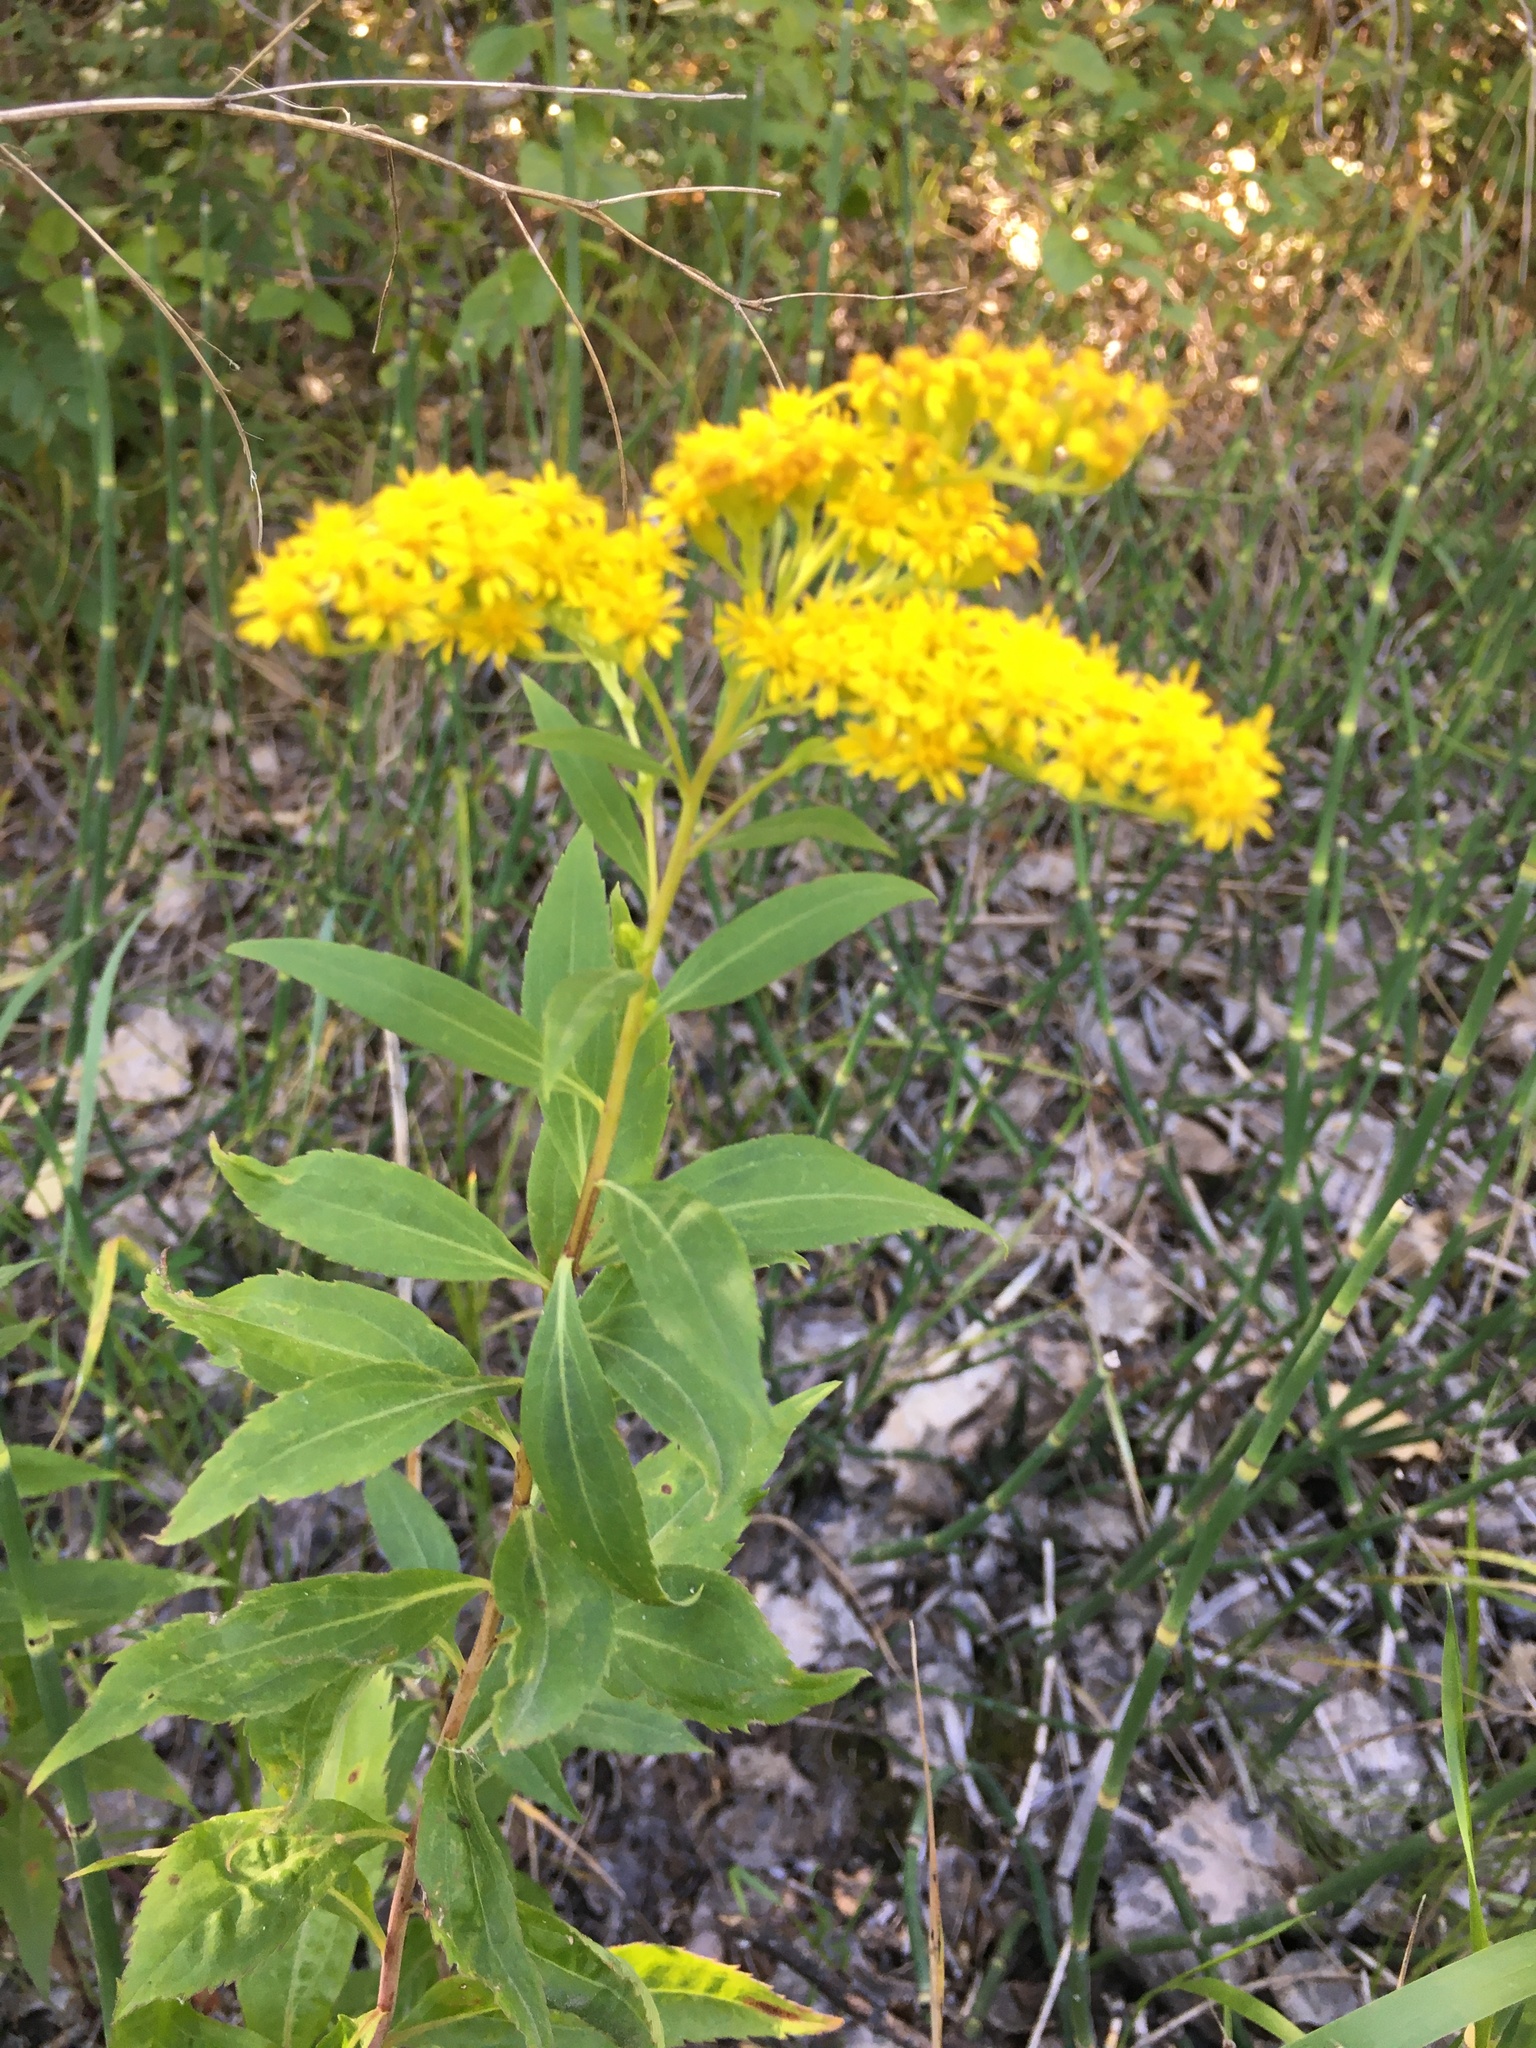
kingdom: Plantae
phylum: Tracheophyta
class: Magnoliopsida
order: Asterales
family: Asteraceae
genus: Solidago
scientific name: Solidago gigantea
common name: Giant goldenrod
